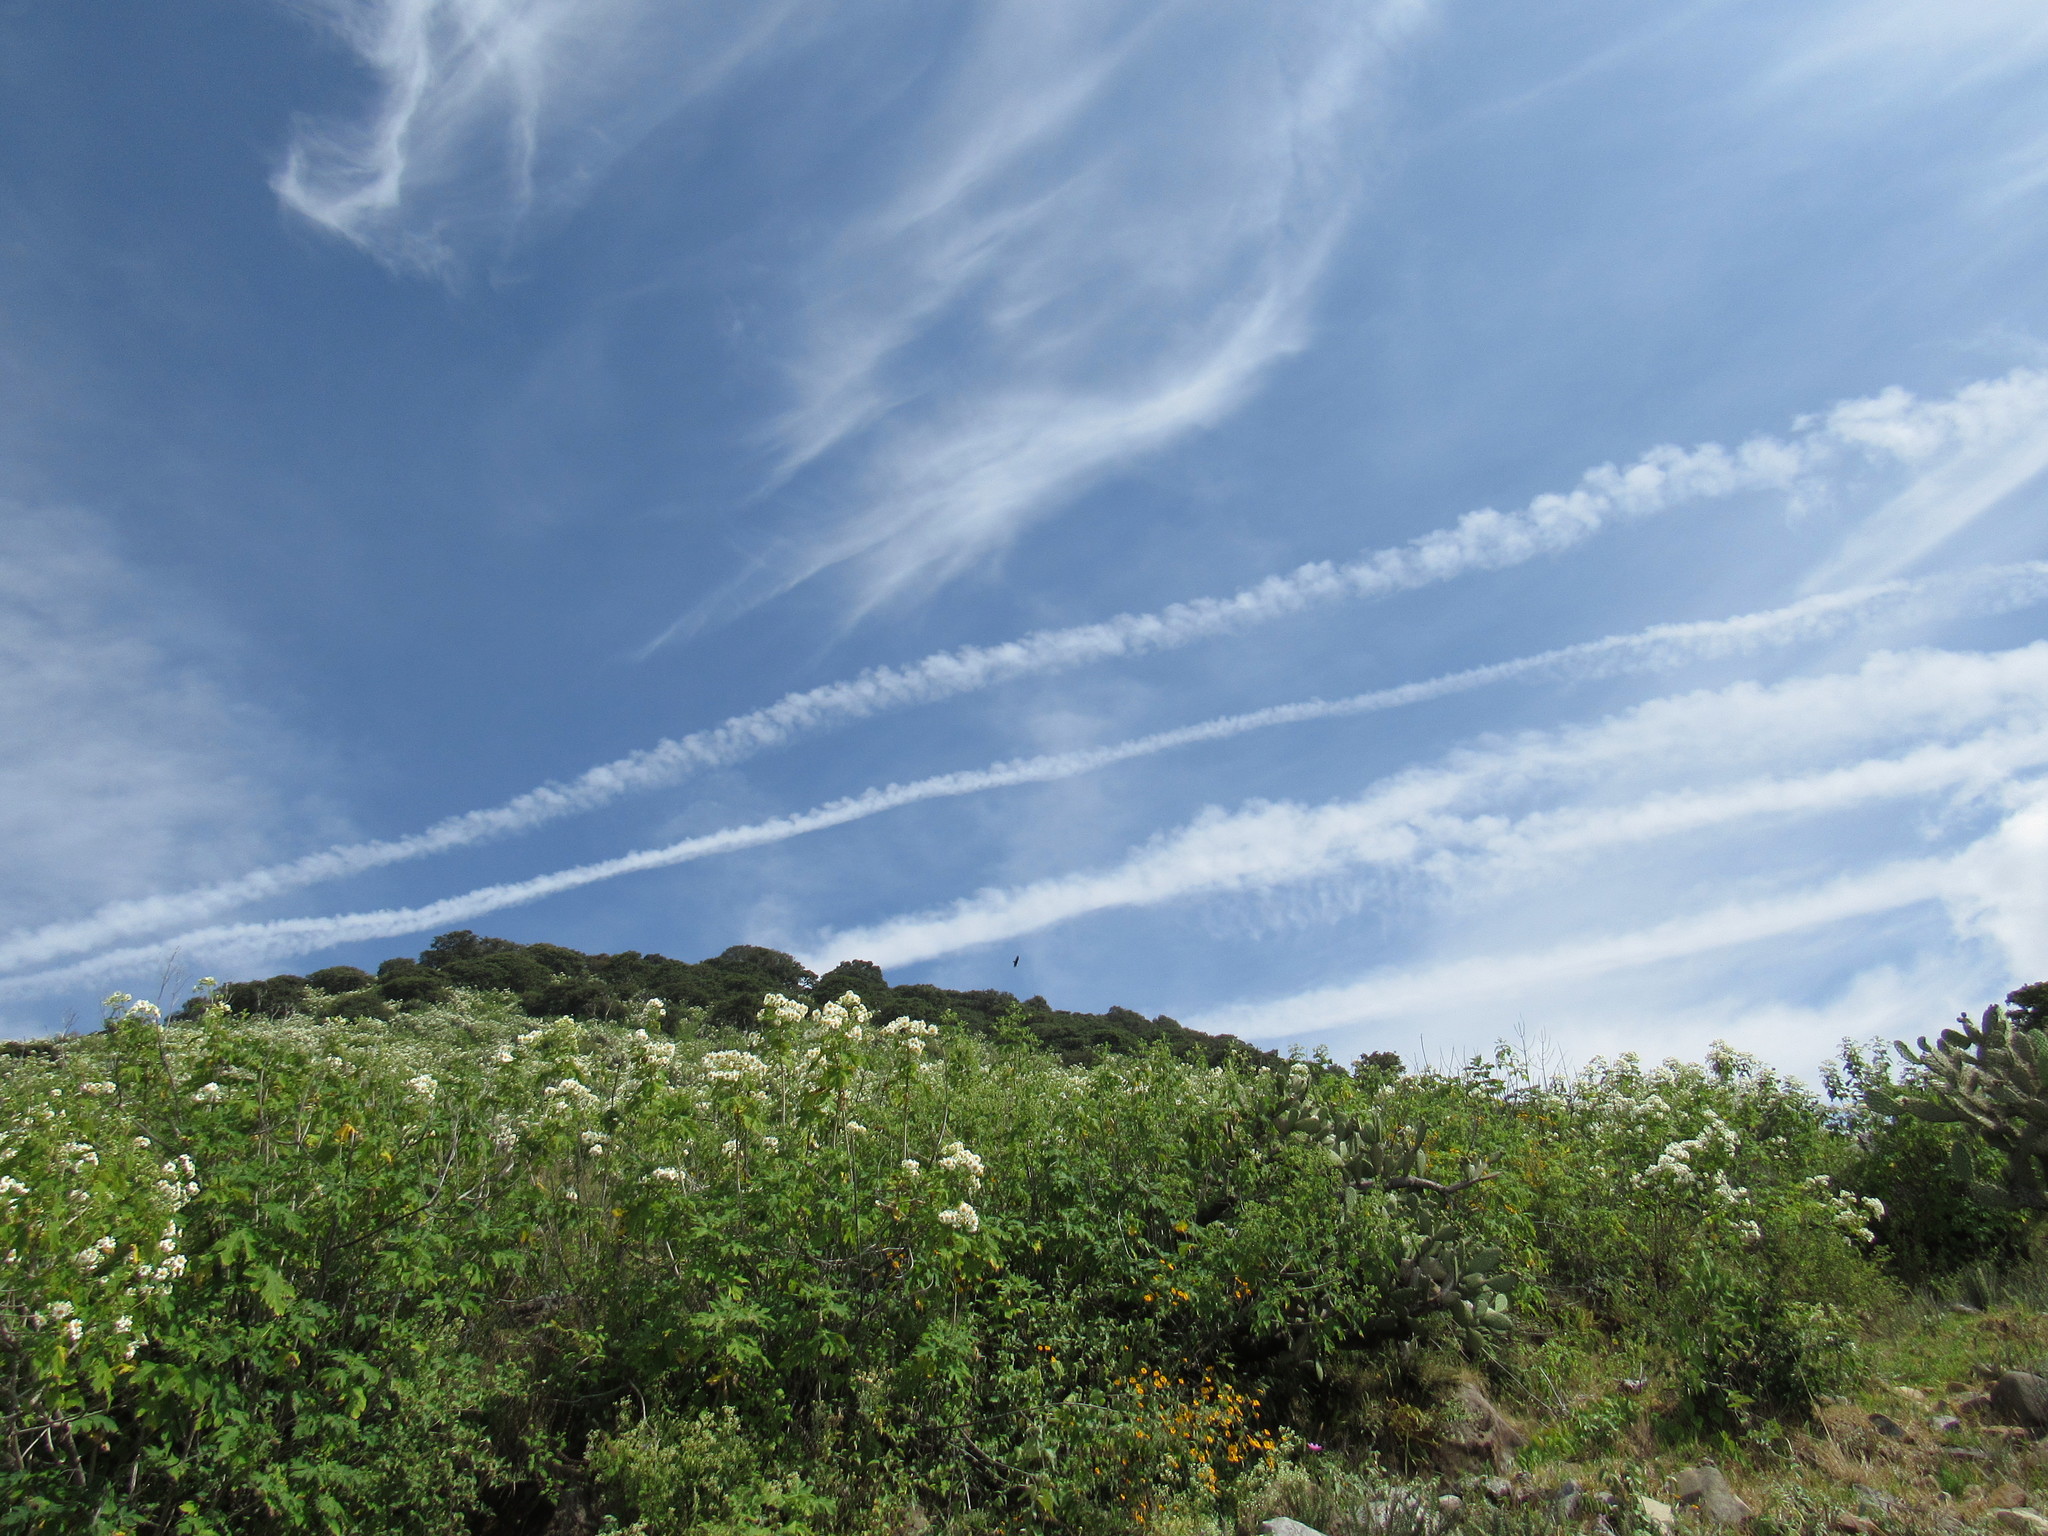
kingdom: Animalia
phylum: Chordata
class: Aves
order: Accipitriformes
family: Cathartidae
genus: Cathartes
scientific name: Cathartes aura
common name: Turkey vulture
